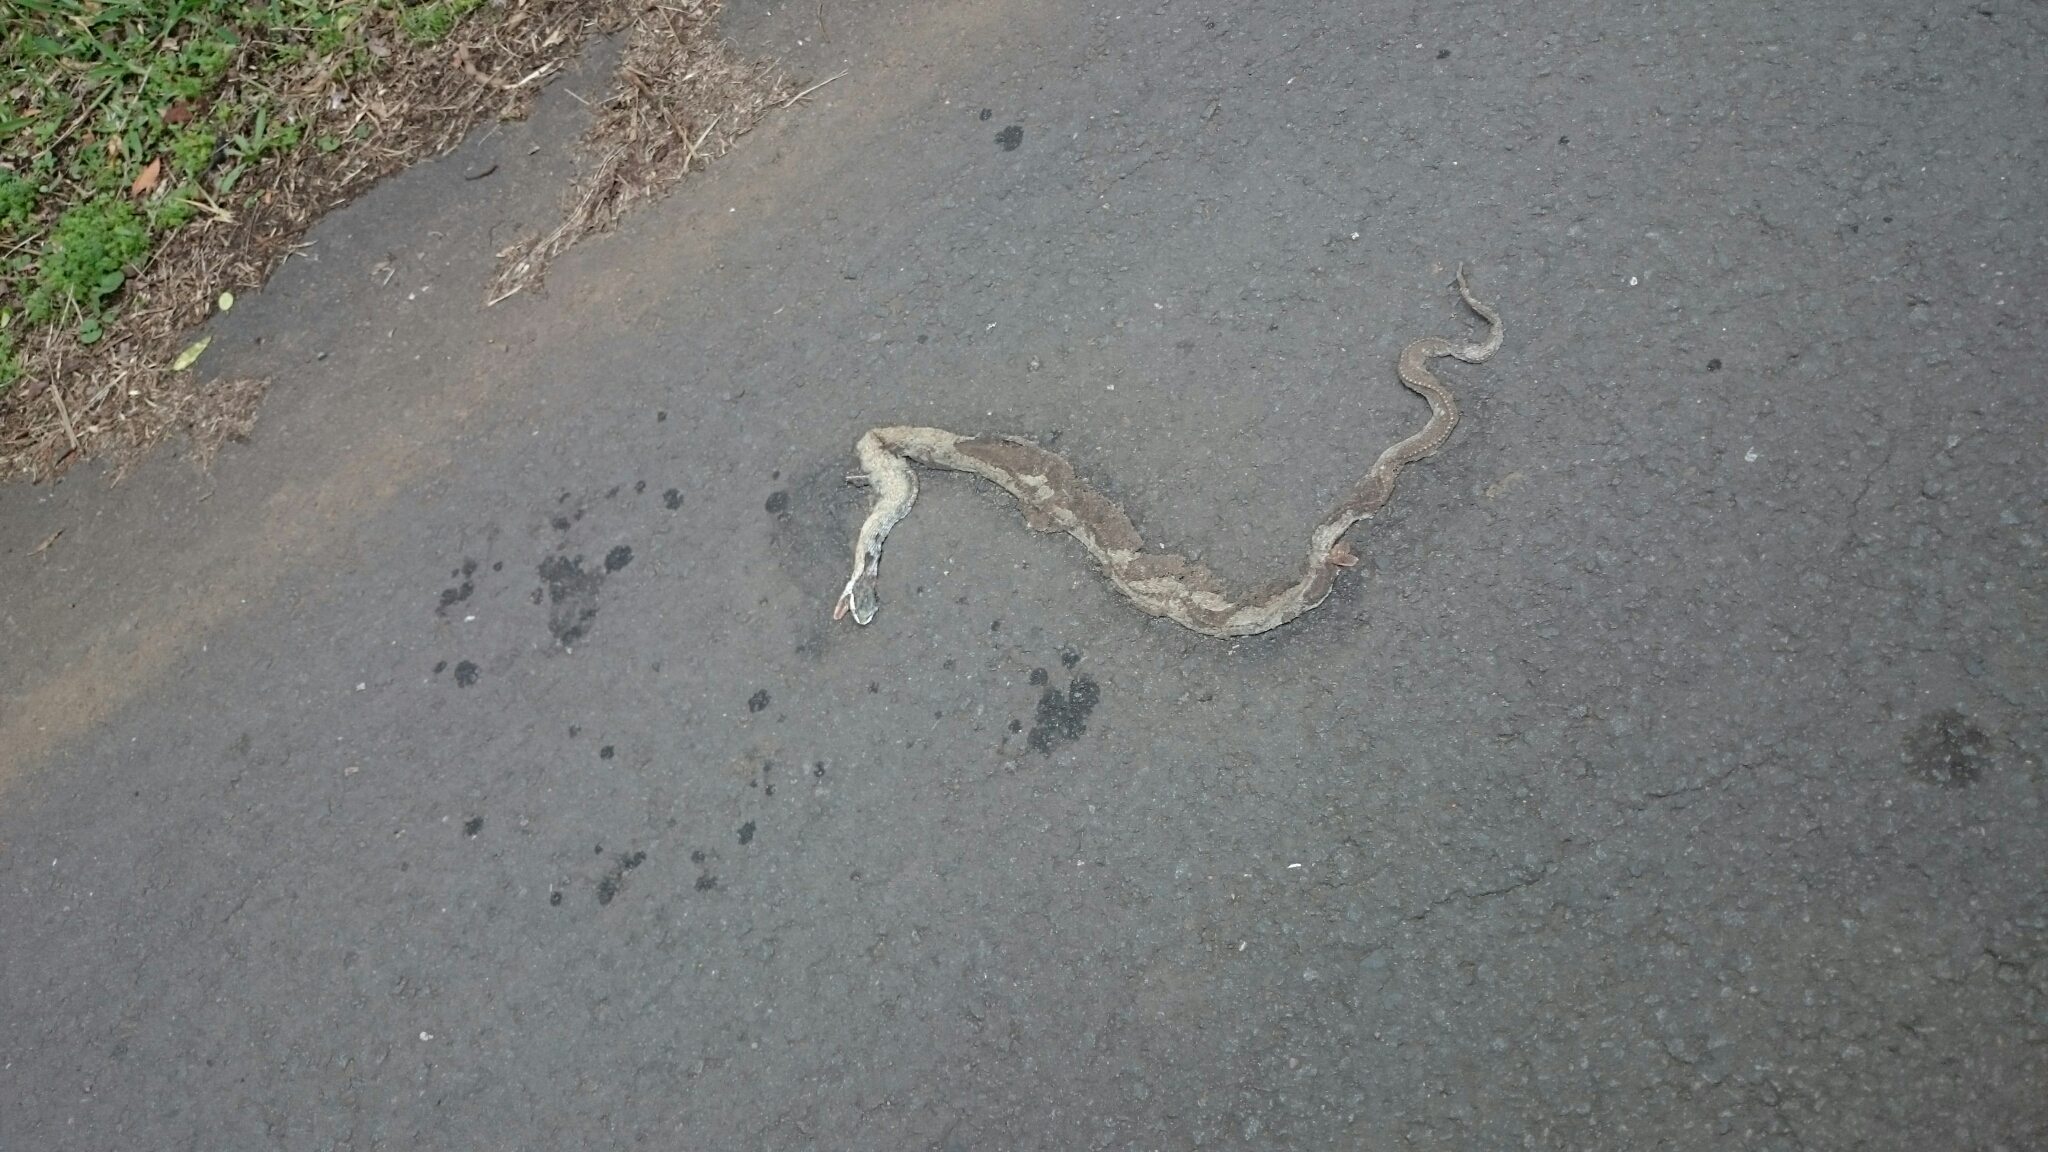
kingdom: Animalia
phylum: Chordata
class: Squamata
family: Colubridae
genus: Thelotornis
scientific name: Thelotornis capensis
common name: Savanna vine snake
